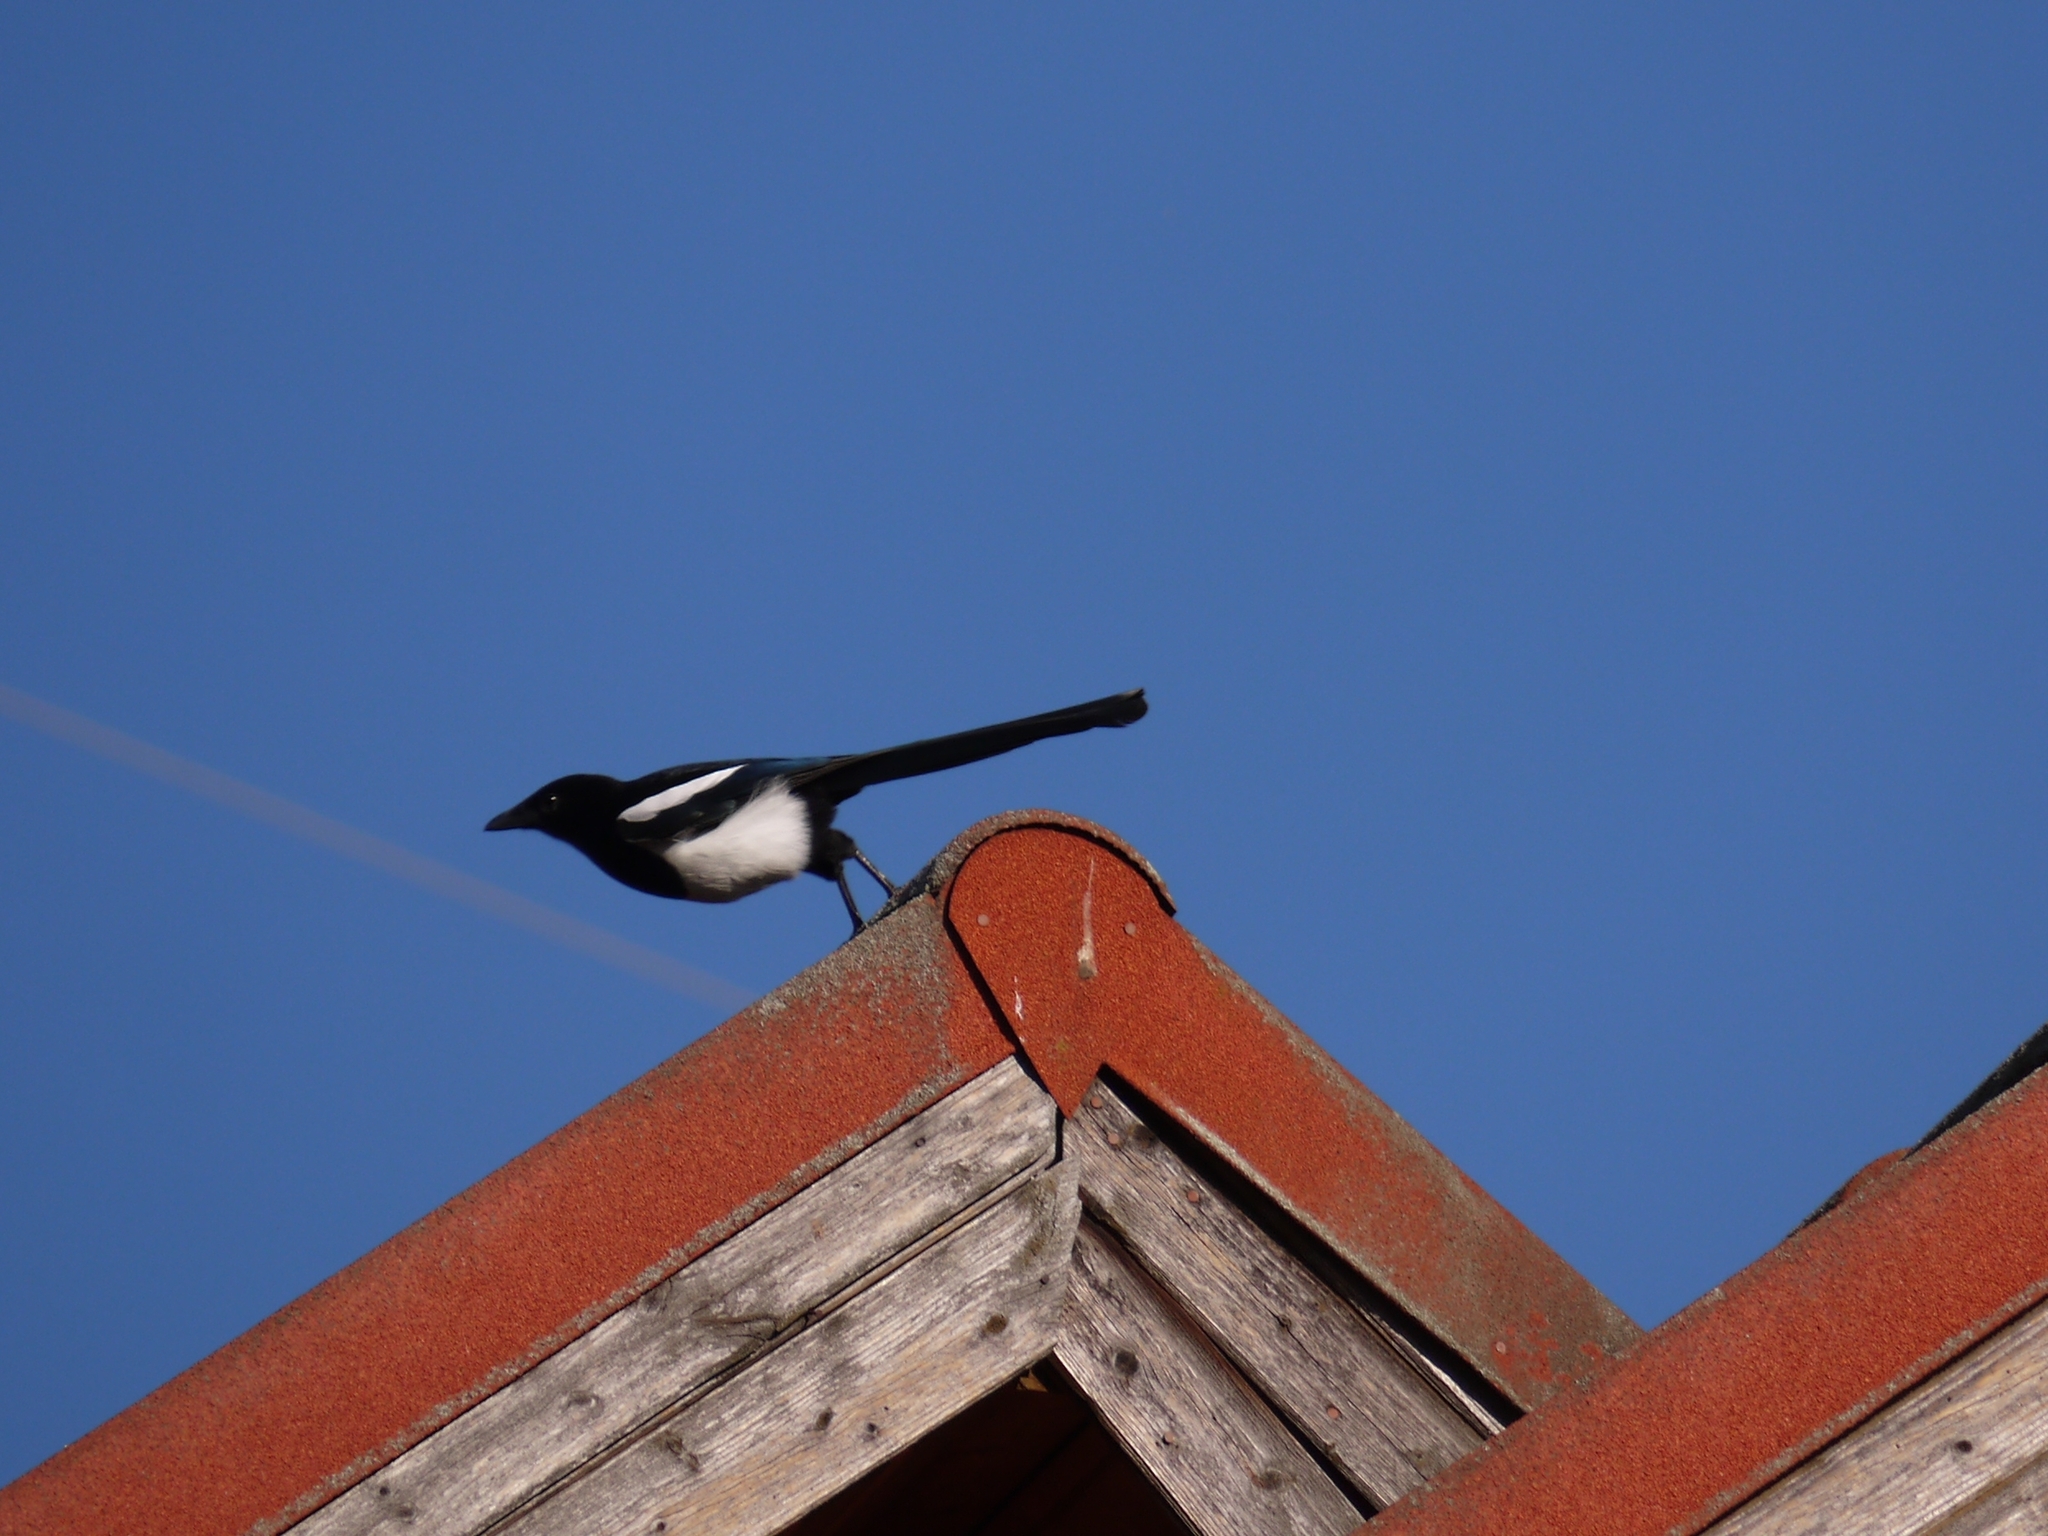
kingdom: Animalia
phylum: Chordata
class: Aves
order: Passeriformes
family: Corvidae
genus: Pica
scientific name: Pica pica
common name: Eurasian magpie
